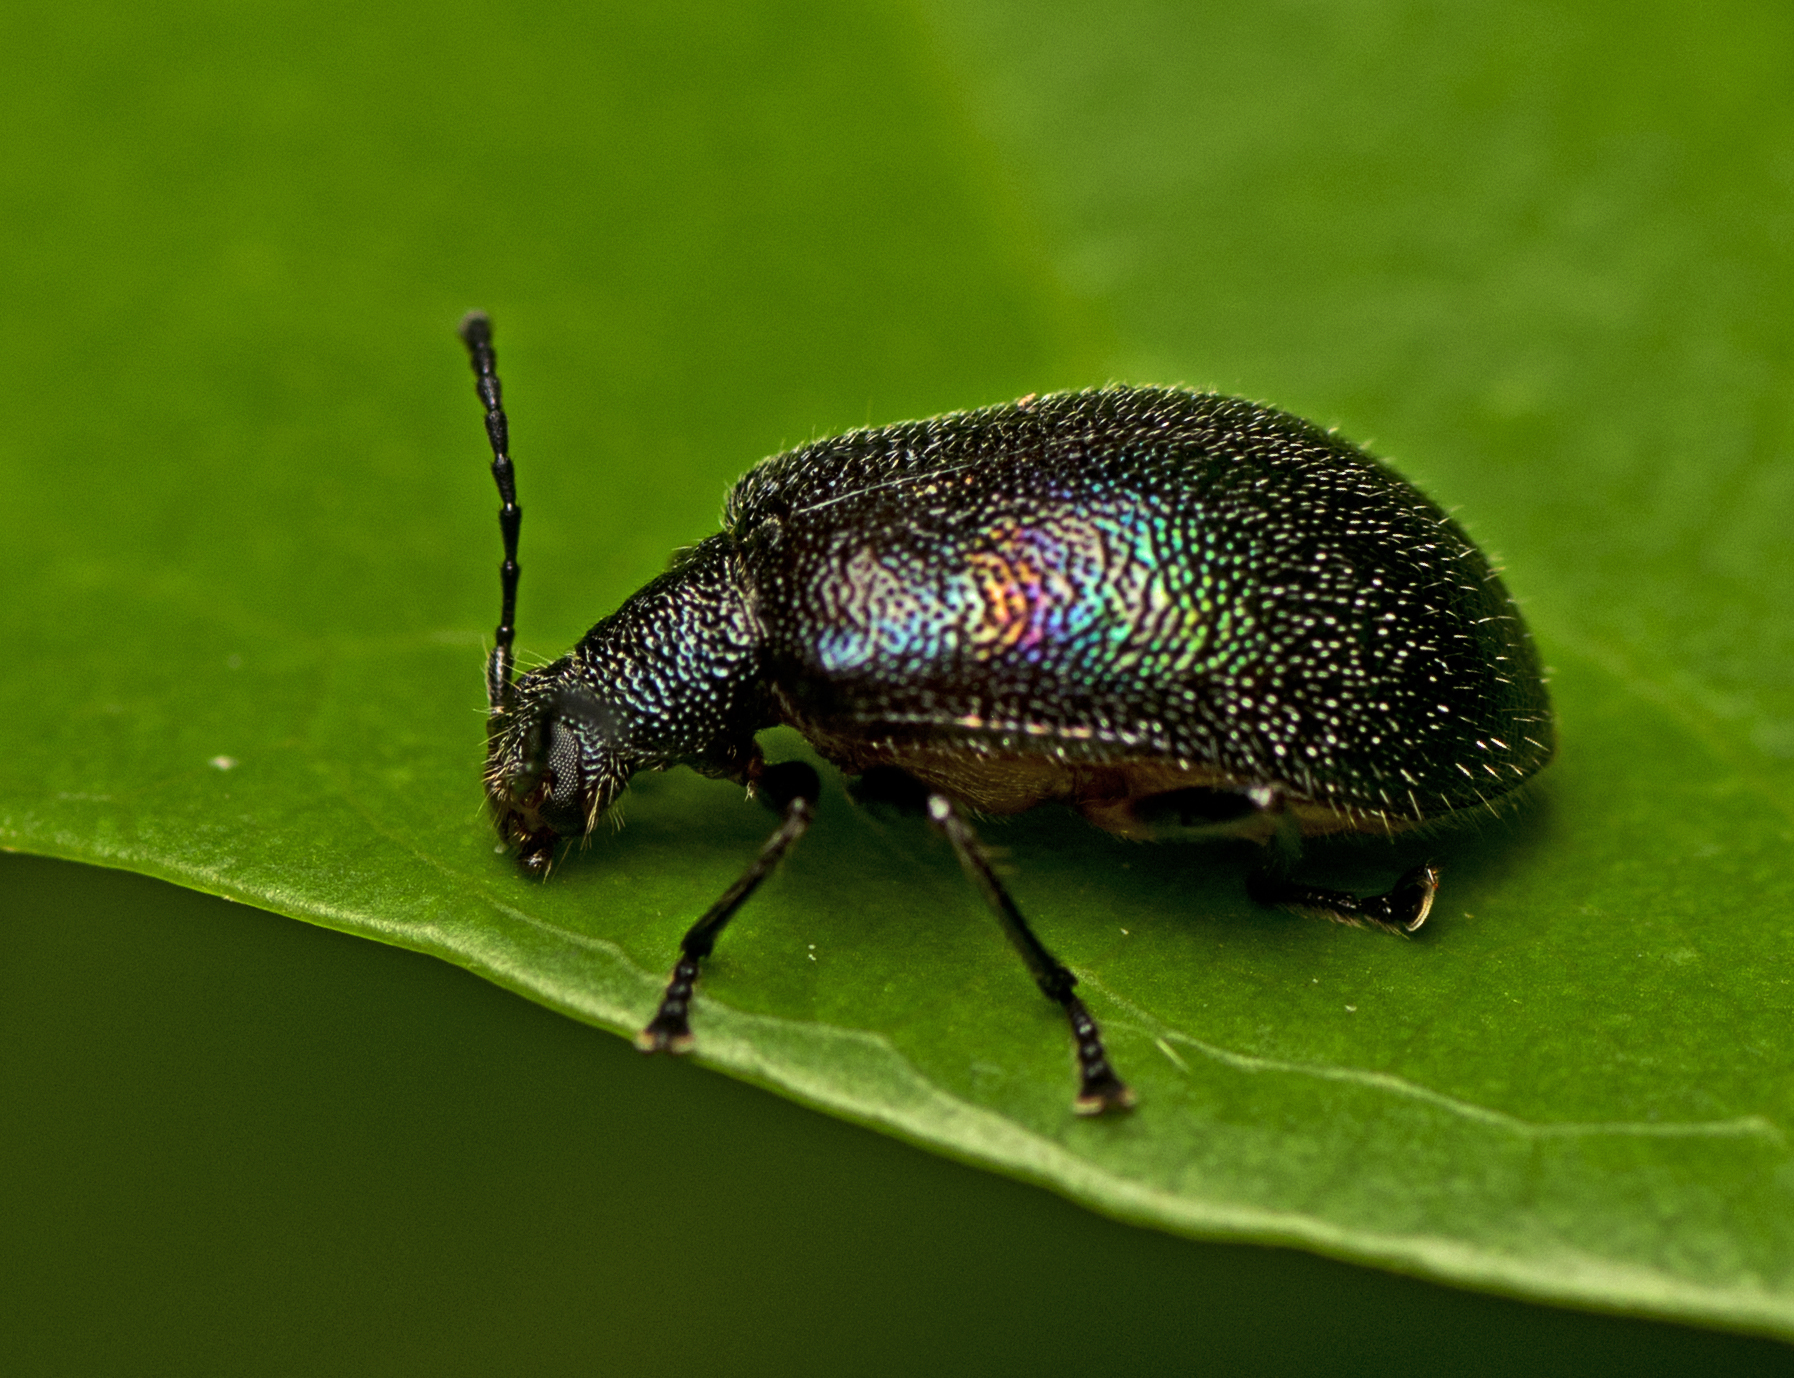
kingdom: Animalia
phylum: Arthropoda
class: Insecta
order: Coleoptera
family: Tenebrionidae
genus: Ecnolagria
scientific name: Ecnolagria
